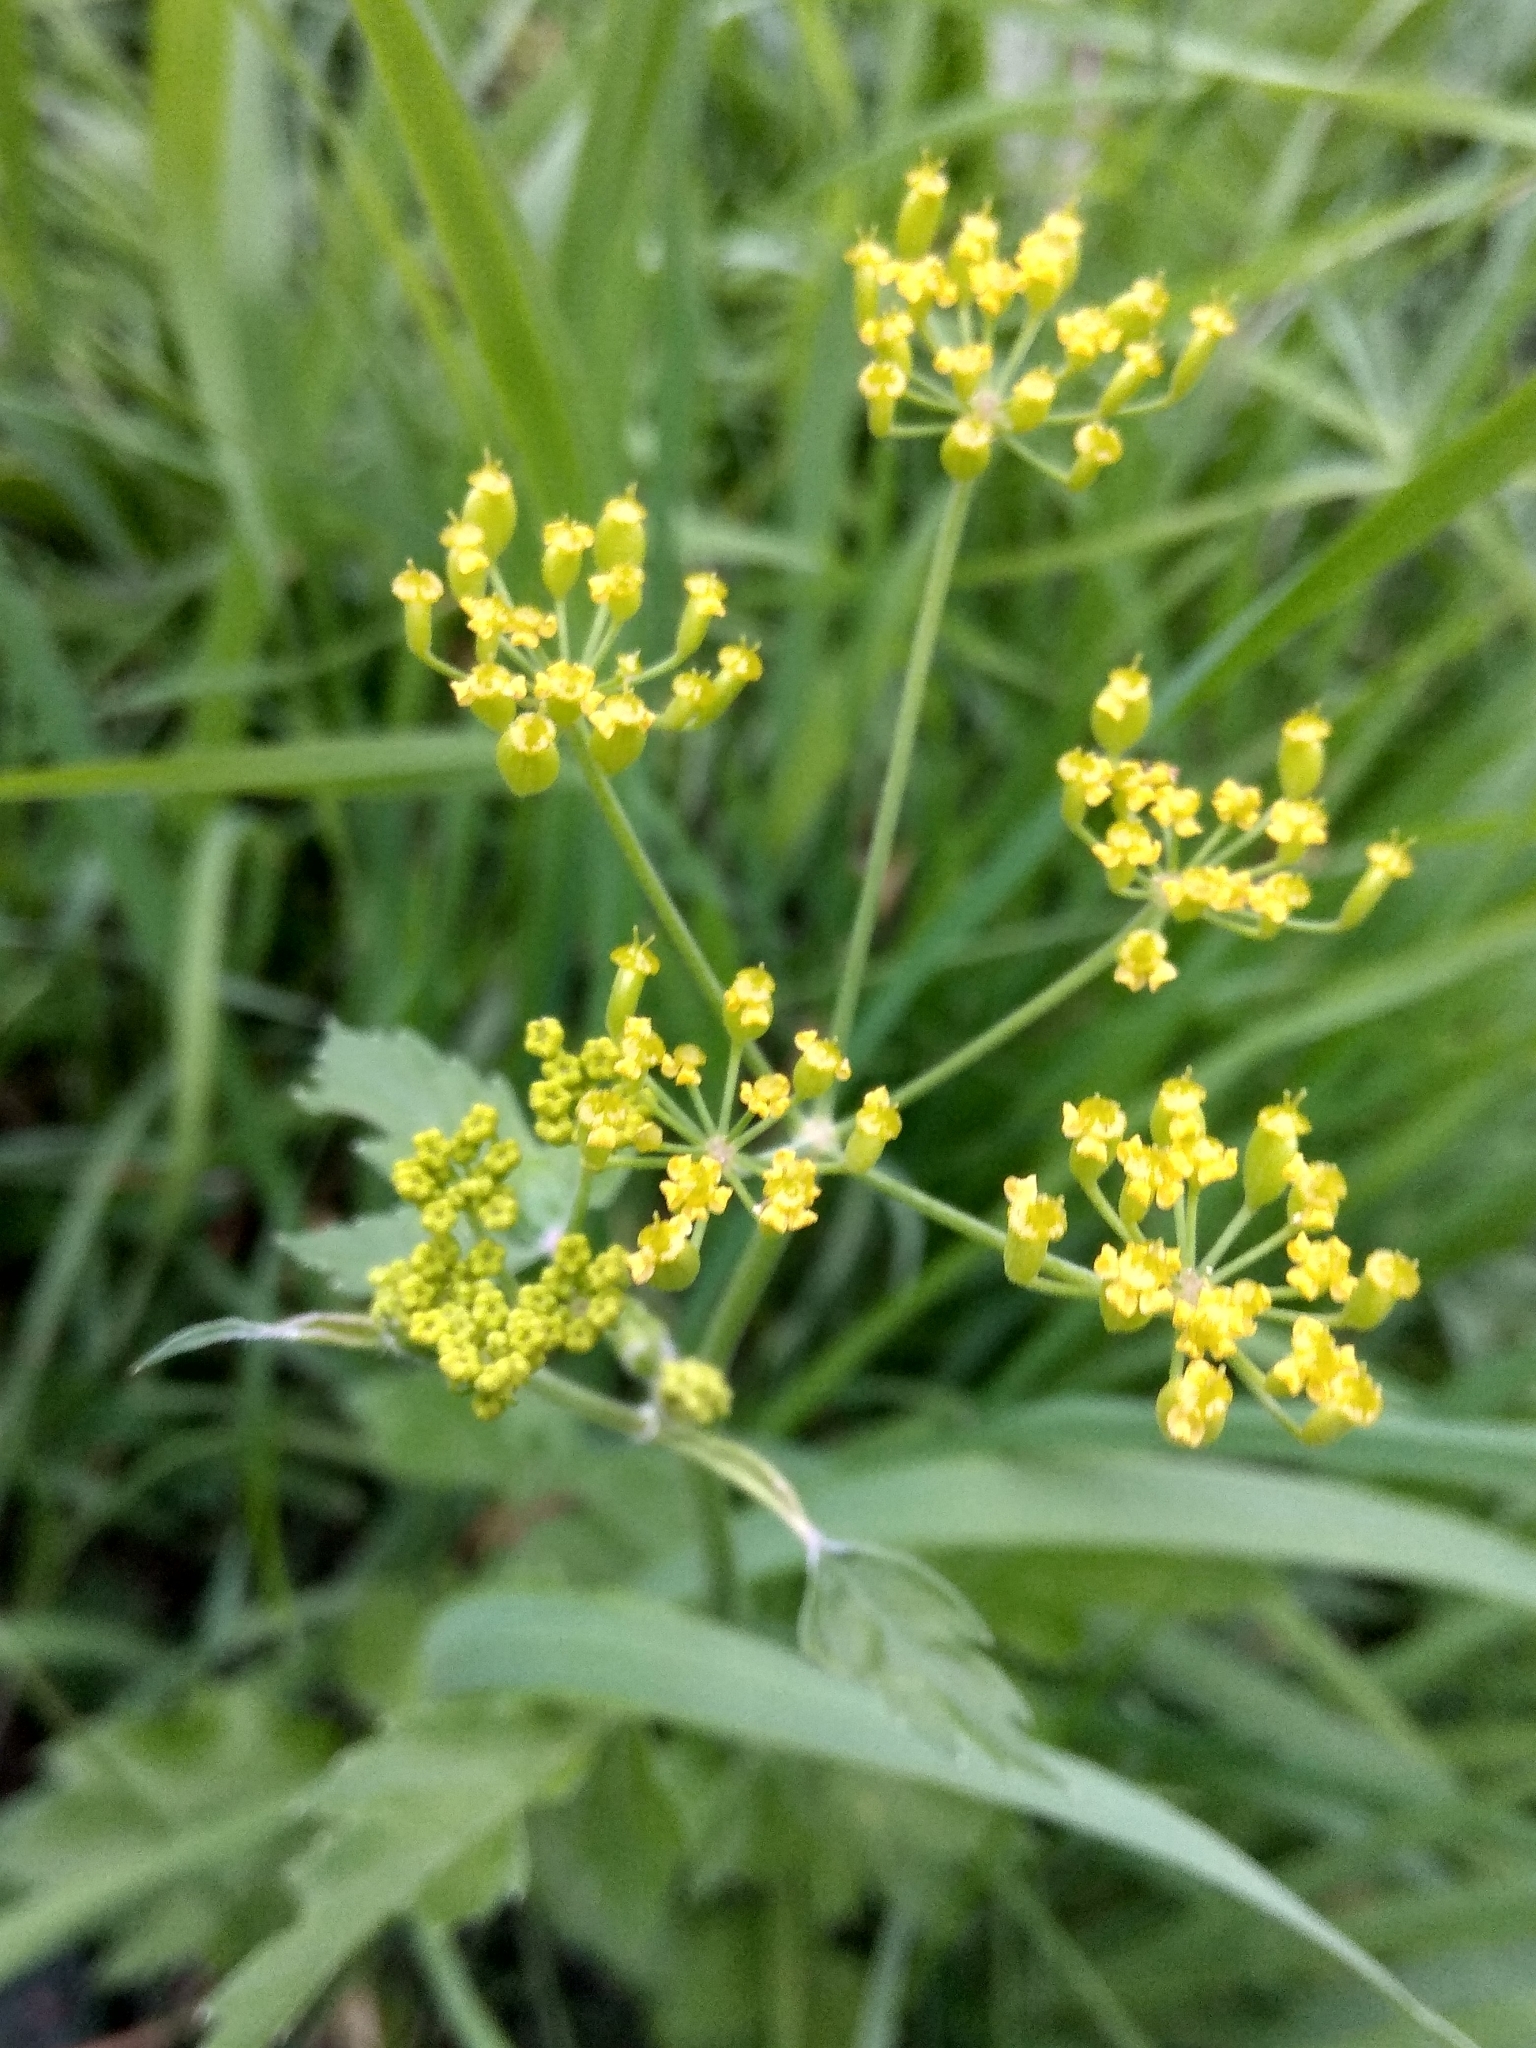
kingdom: Plantae
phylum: Tracheophyta
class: Magnoliopsida
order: Apiales
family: Apiaceae
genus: Pastinaca
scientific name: Pastinaca sativa
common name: Wild parsnip
